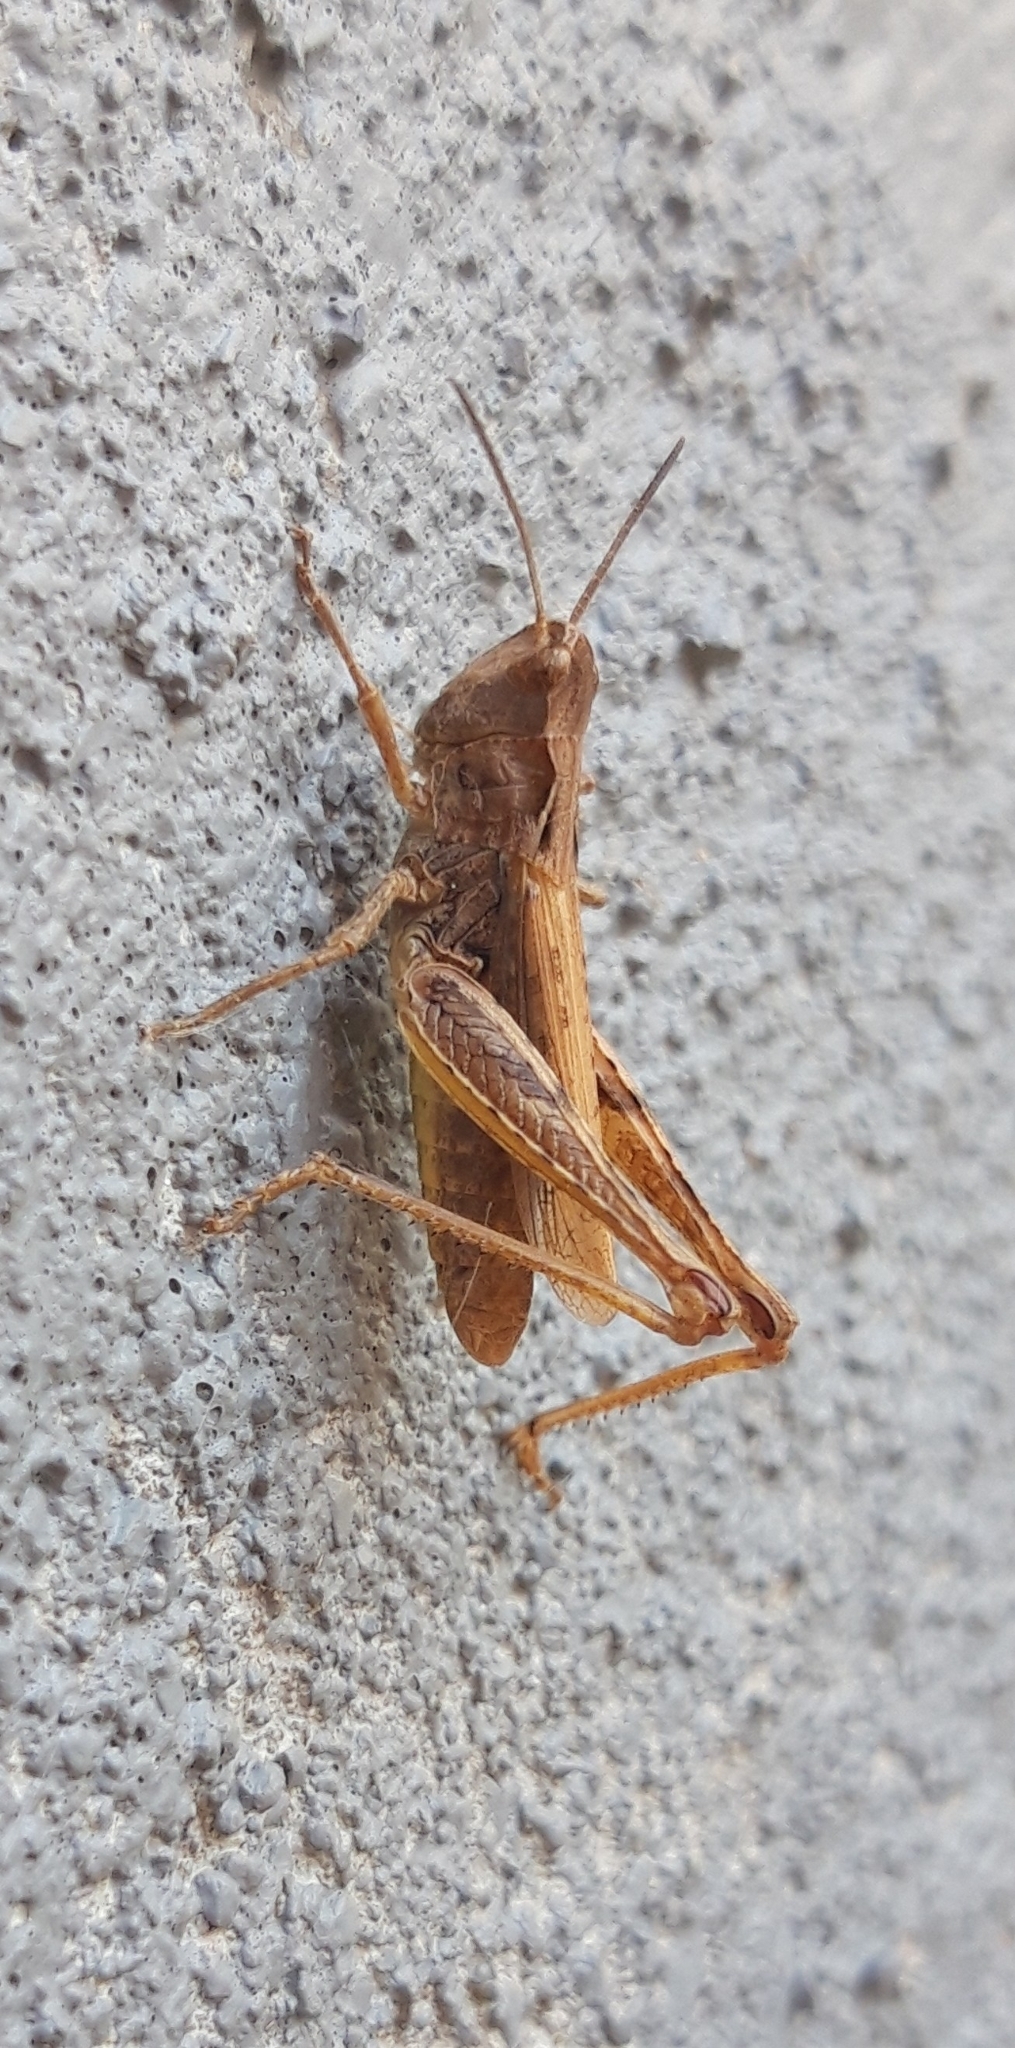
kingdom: Animalia
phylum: Arthropoda
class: Insecta
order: Orthoptera
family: Acrididae
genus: Chorthippus
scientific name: Chorthippus apricarius
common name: Upland field grasshopper
